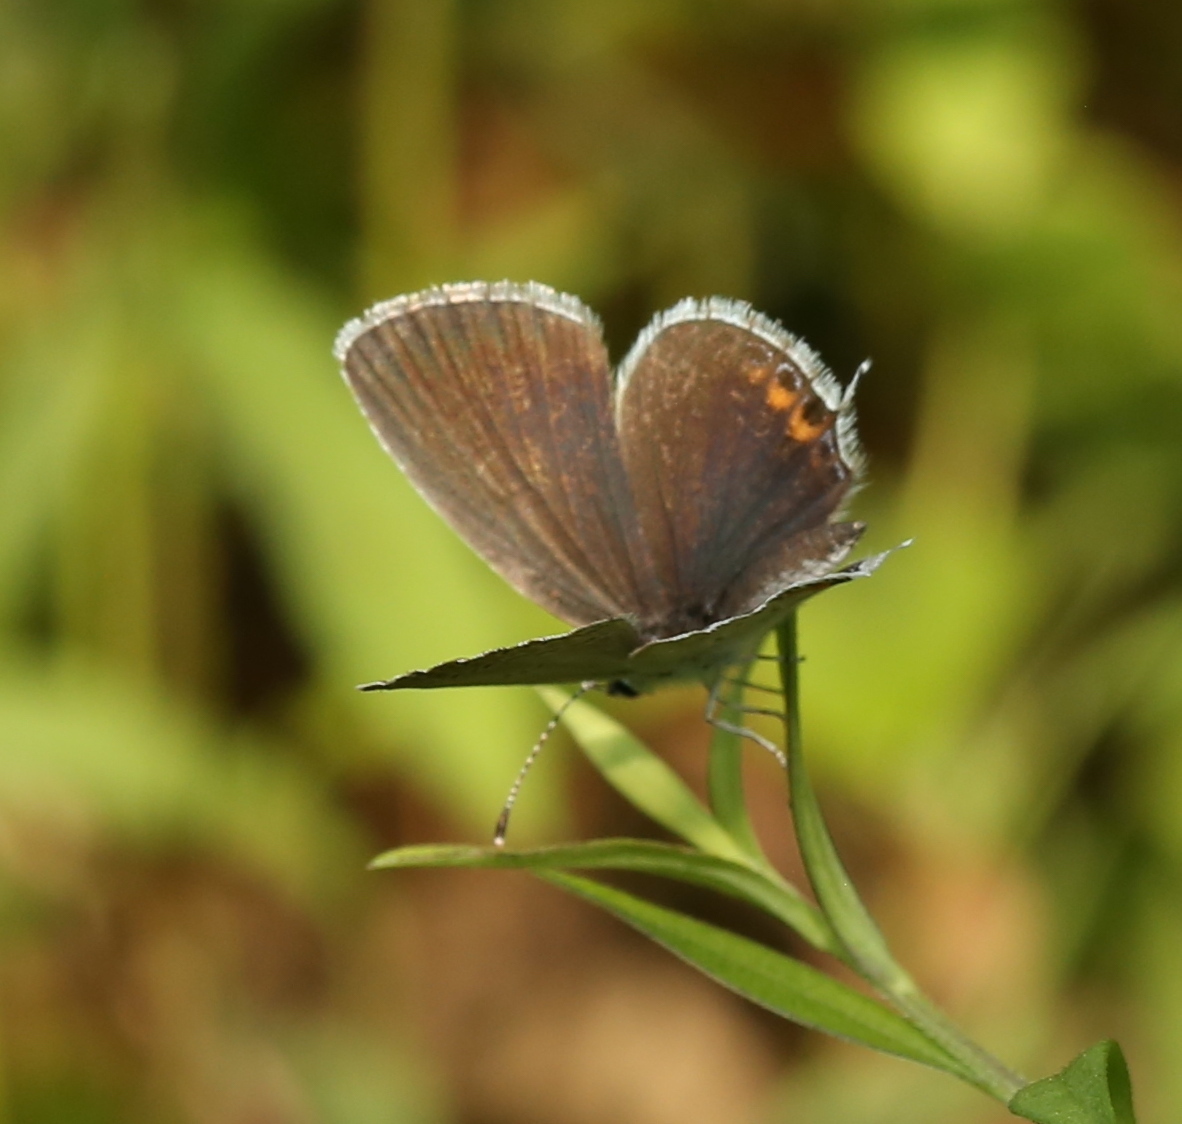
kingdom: Animalia
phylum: Arthropoda
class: Insecta
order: Lepidoptera
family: Lycaenidae
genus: Elkalyce
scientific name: Elkalyce comyntas
